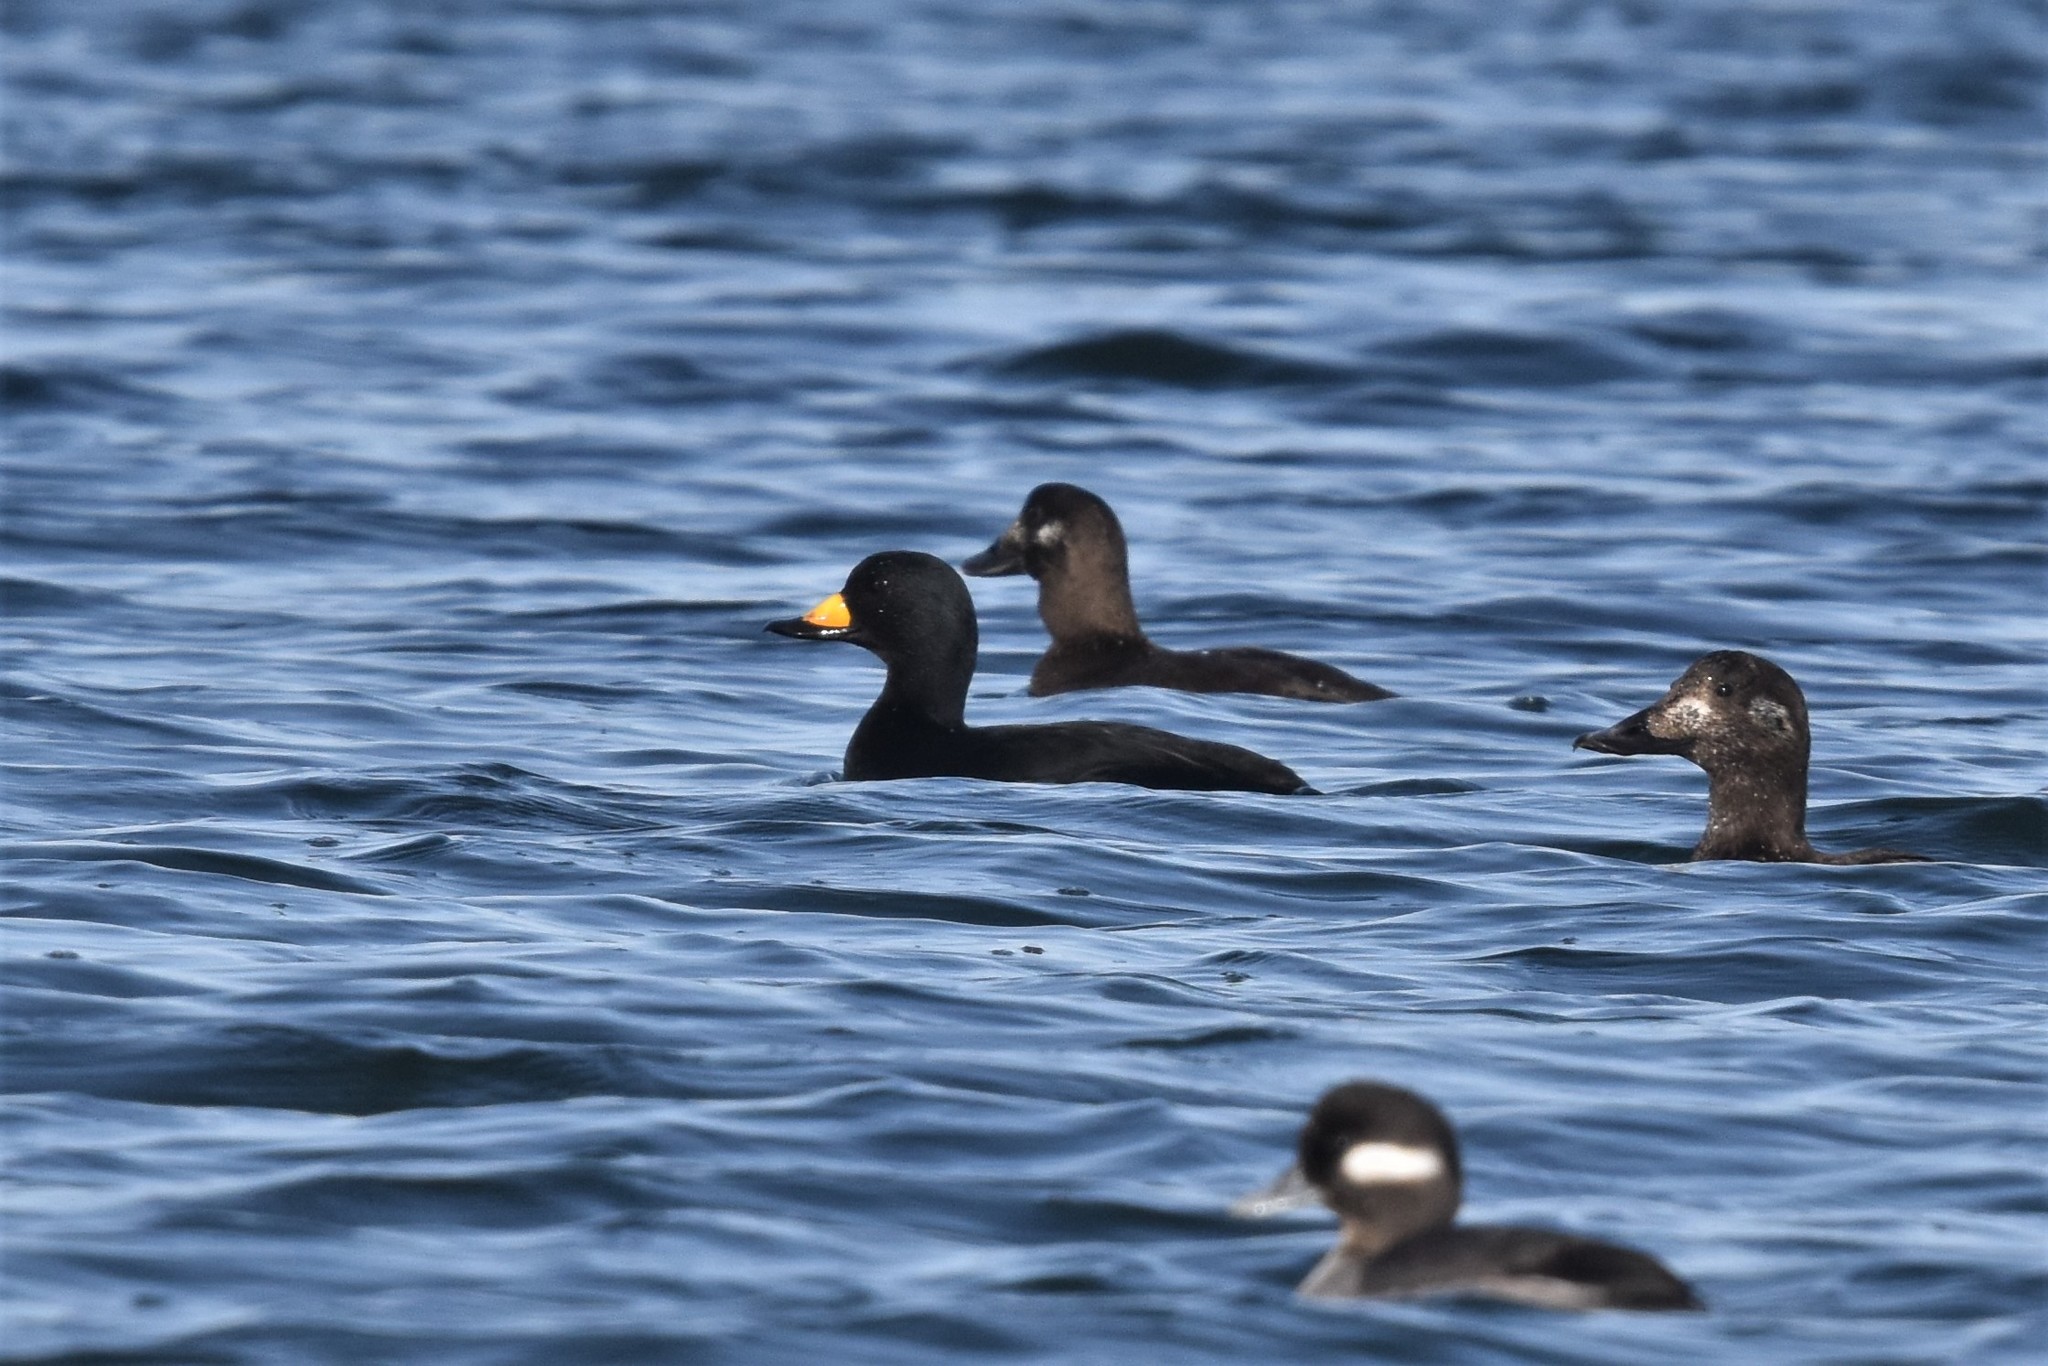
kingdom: Animalia
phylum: Chordata
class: Aves
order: Anseriformes
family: Anatidae
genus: Melanitta
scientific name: Melanitta americana
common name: Black scoter
